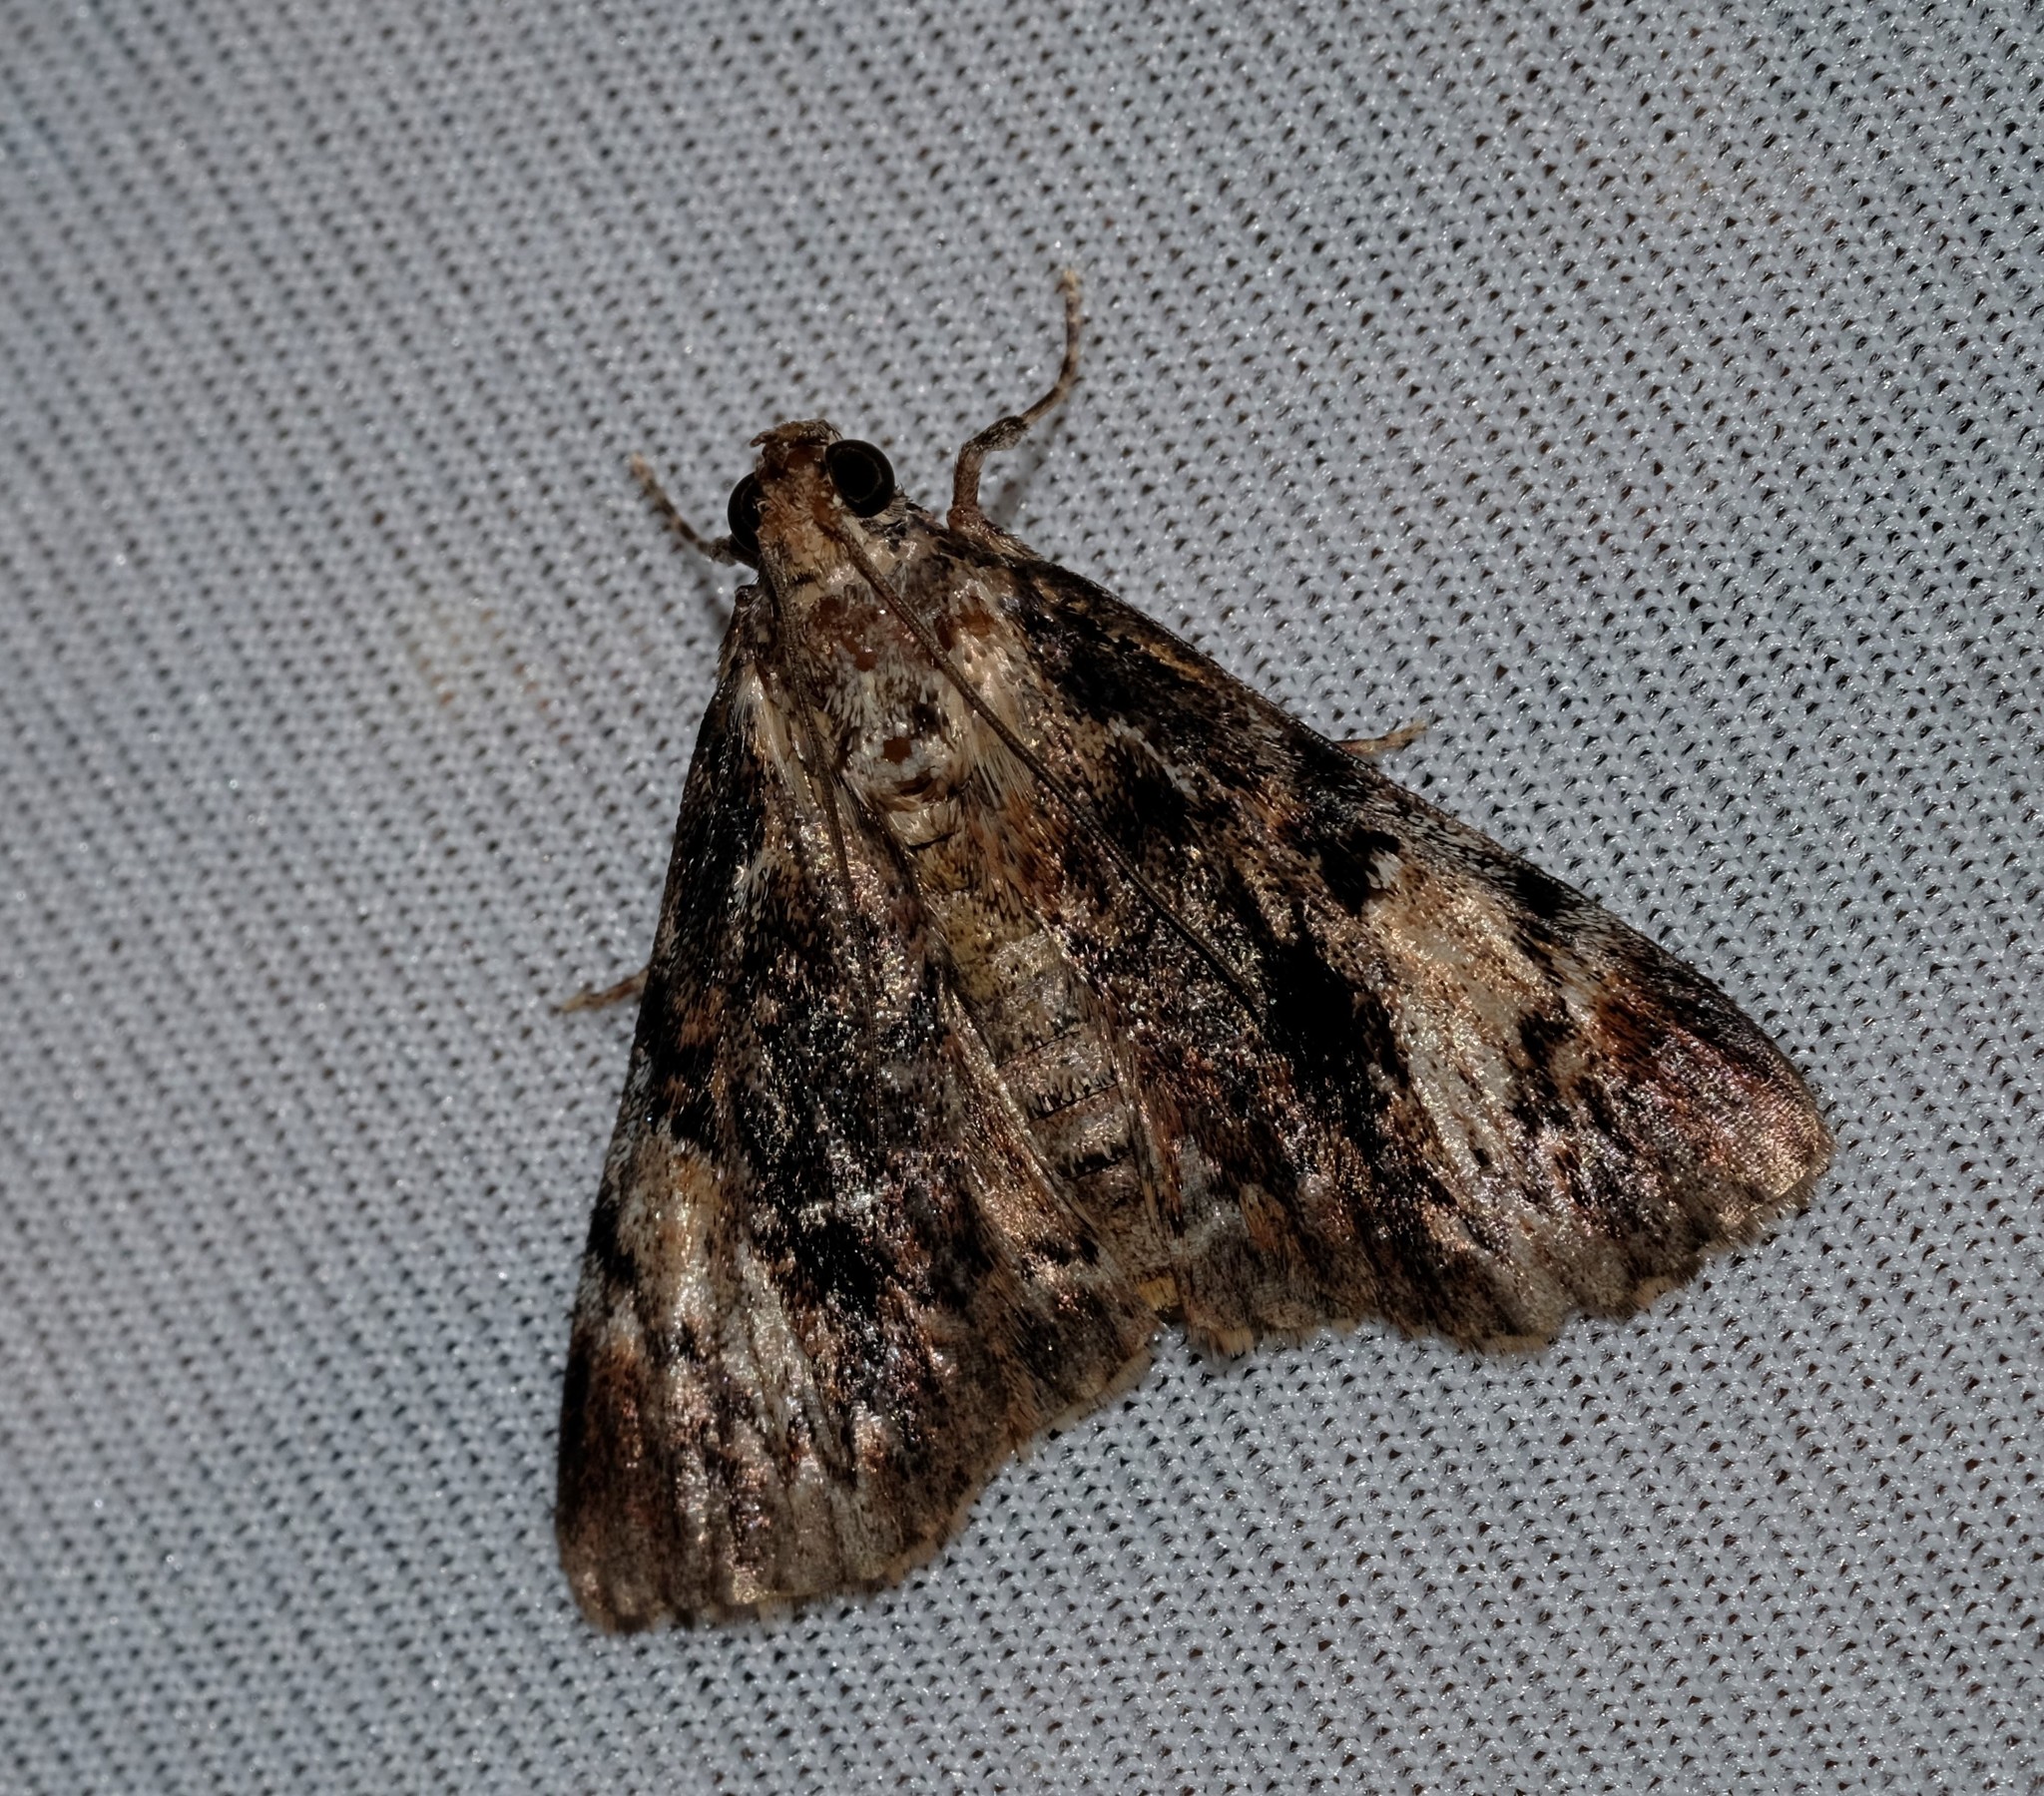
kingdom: Animalia
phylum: Arthropoda
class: Insecta
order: Lepidoptera
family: Pyralidae
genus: Orthaga
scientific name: Orthaga thyrisalis
